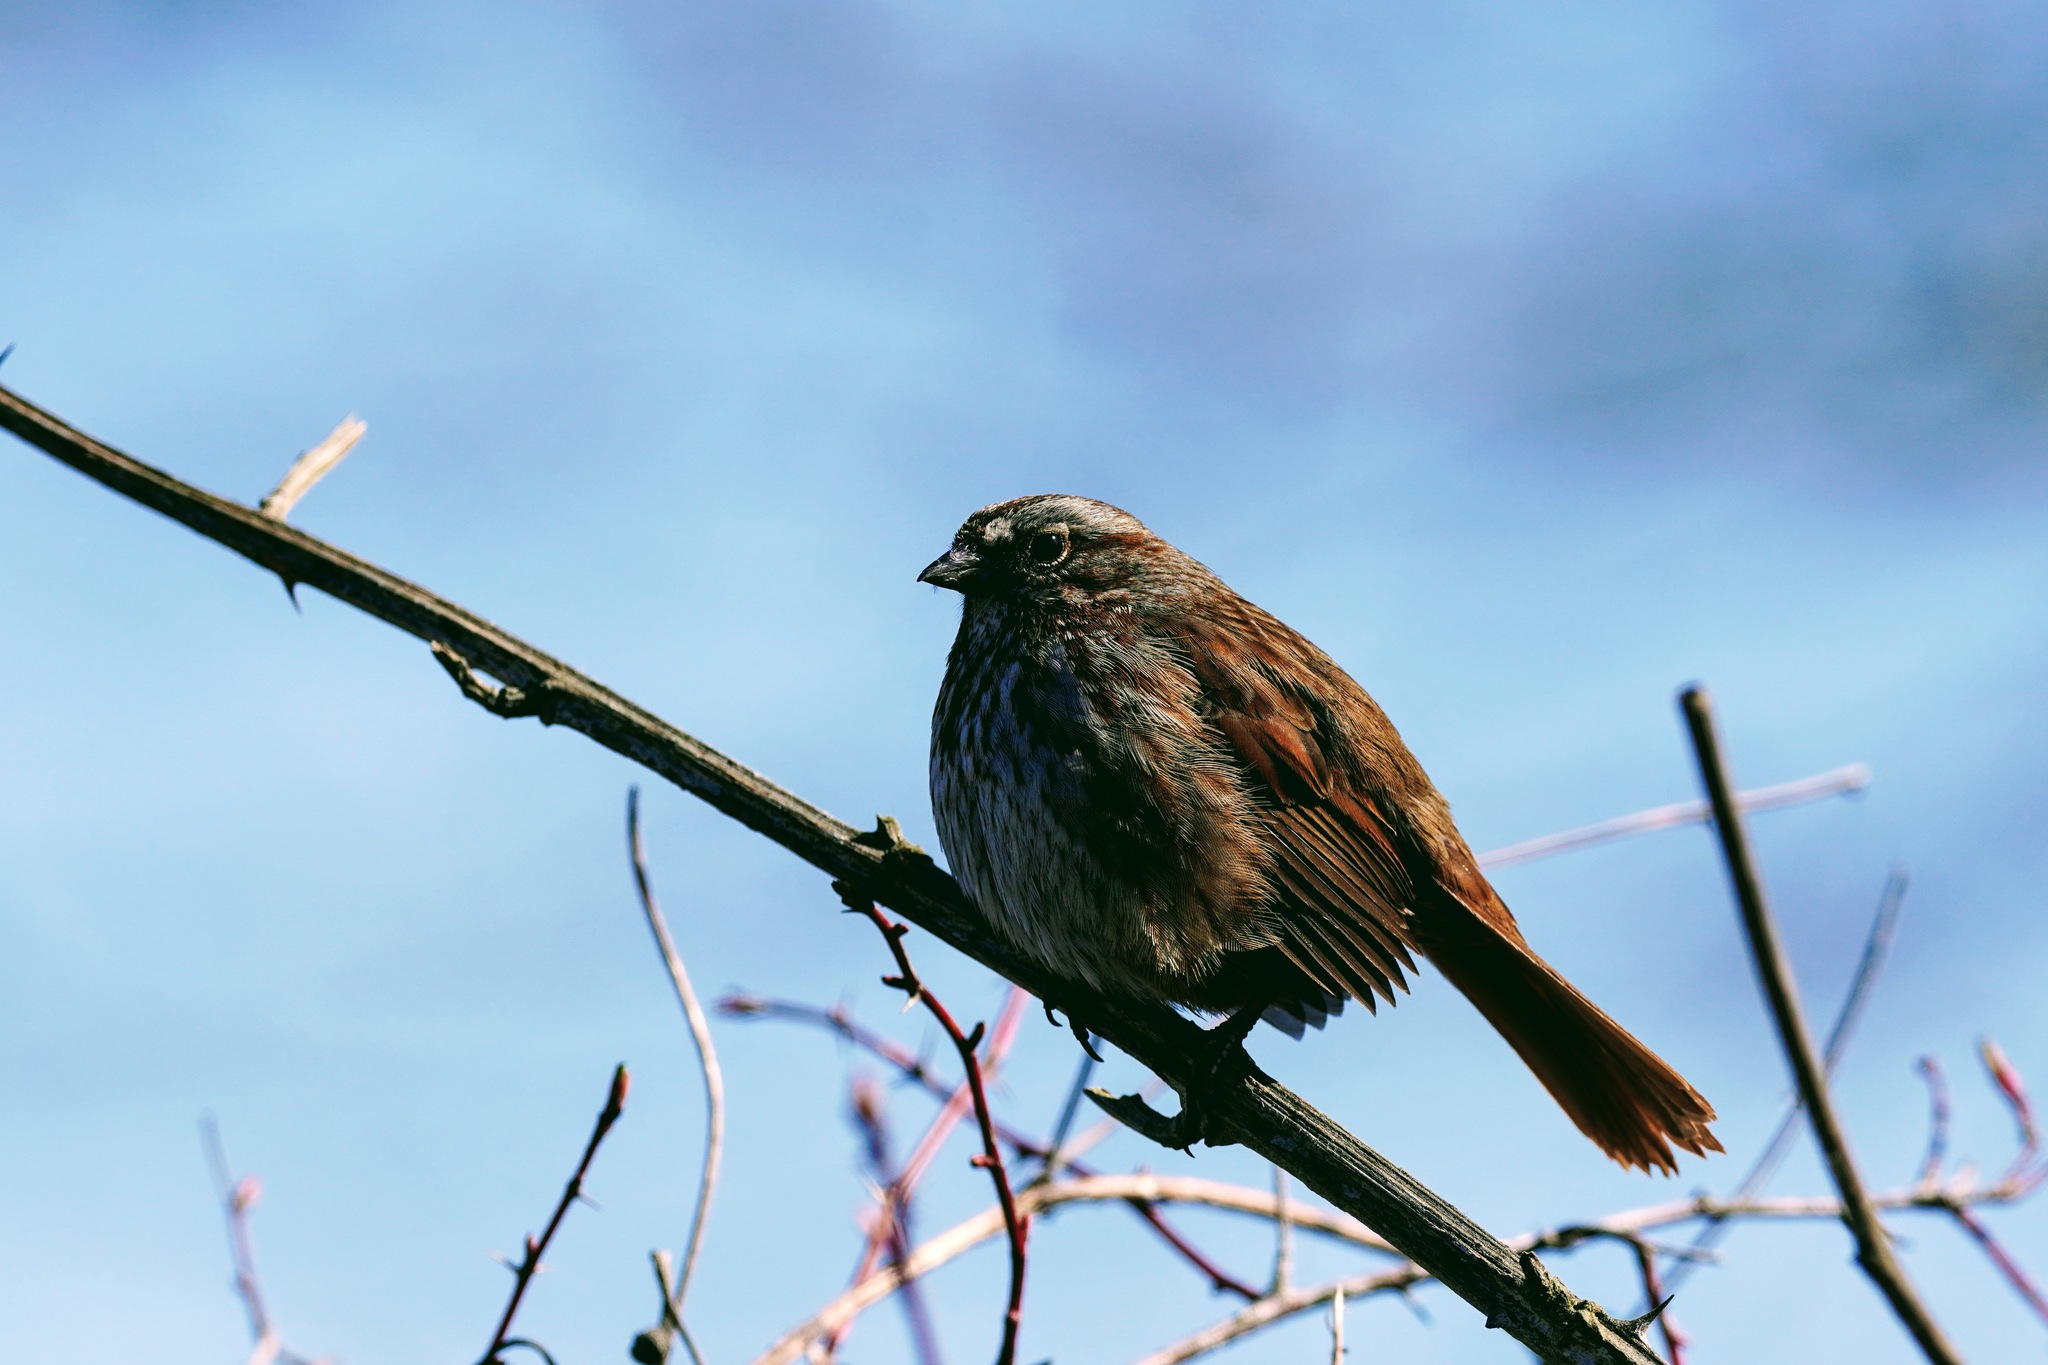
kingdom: Animalia
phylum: Chordata
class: Aves
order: Passeriformes
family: Passerellidae
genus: Melospiza
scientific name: Melospiza melodia
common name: Song sparrow
